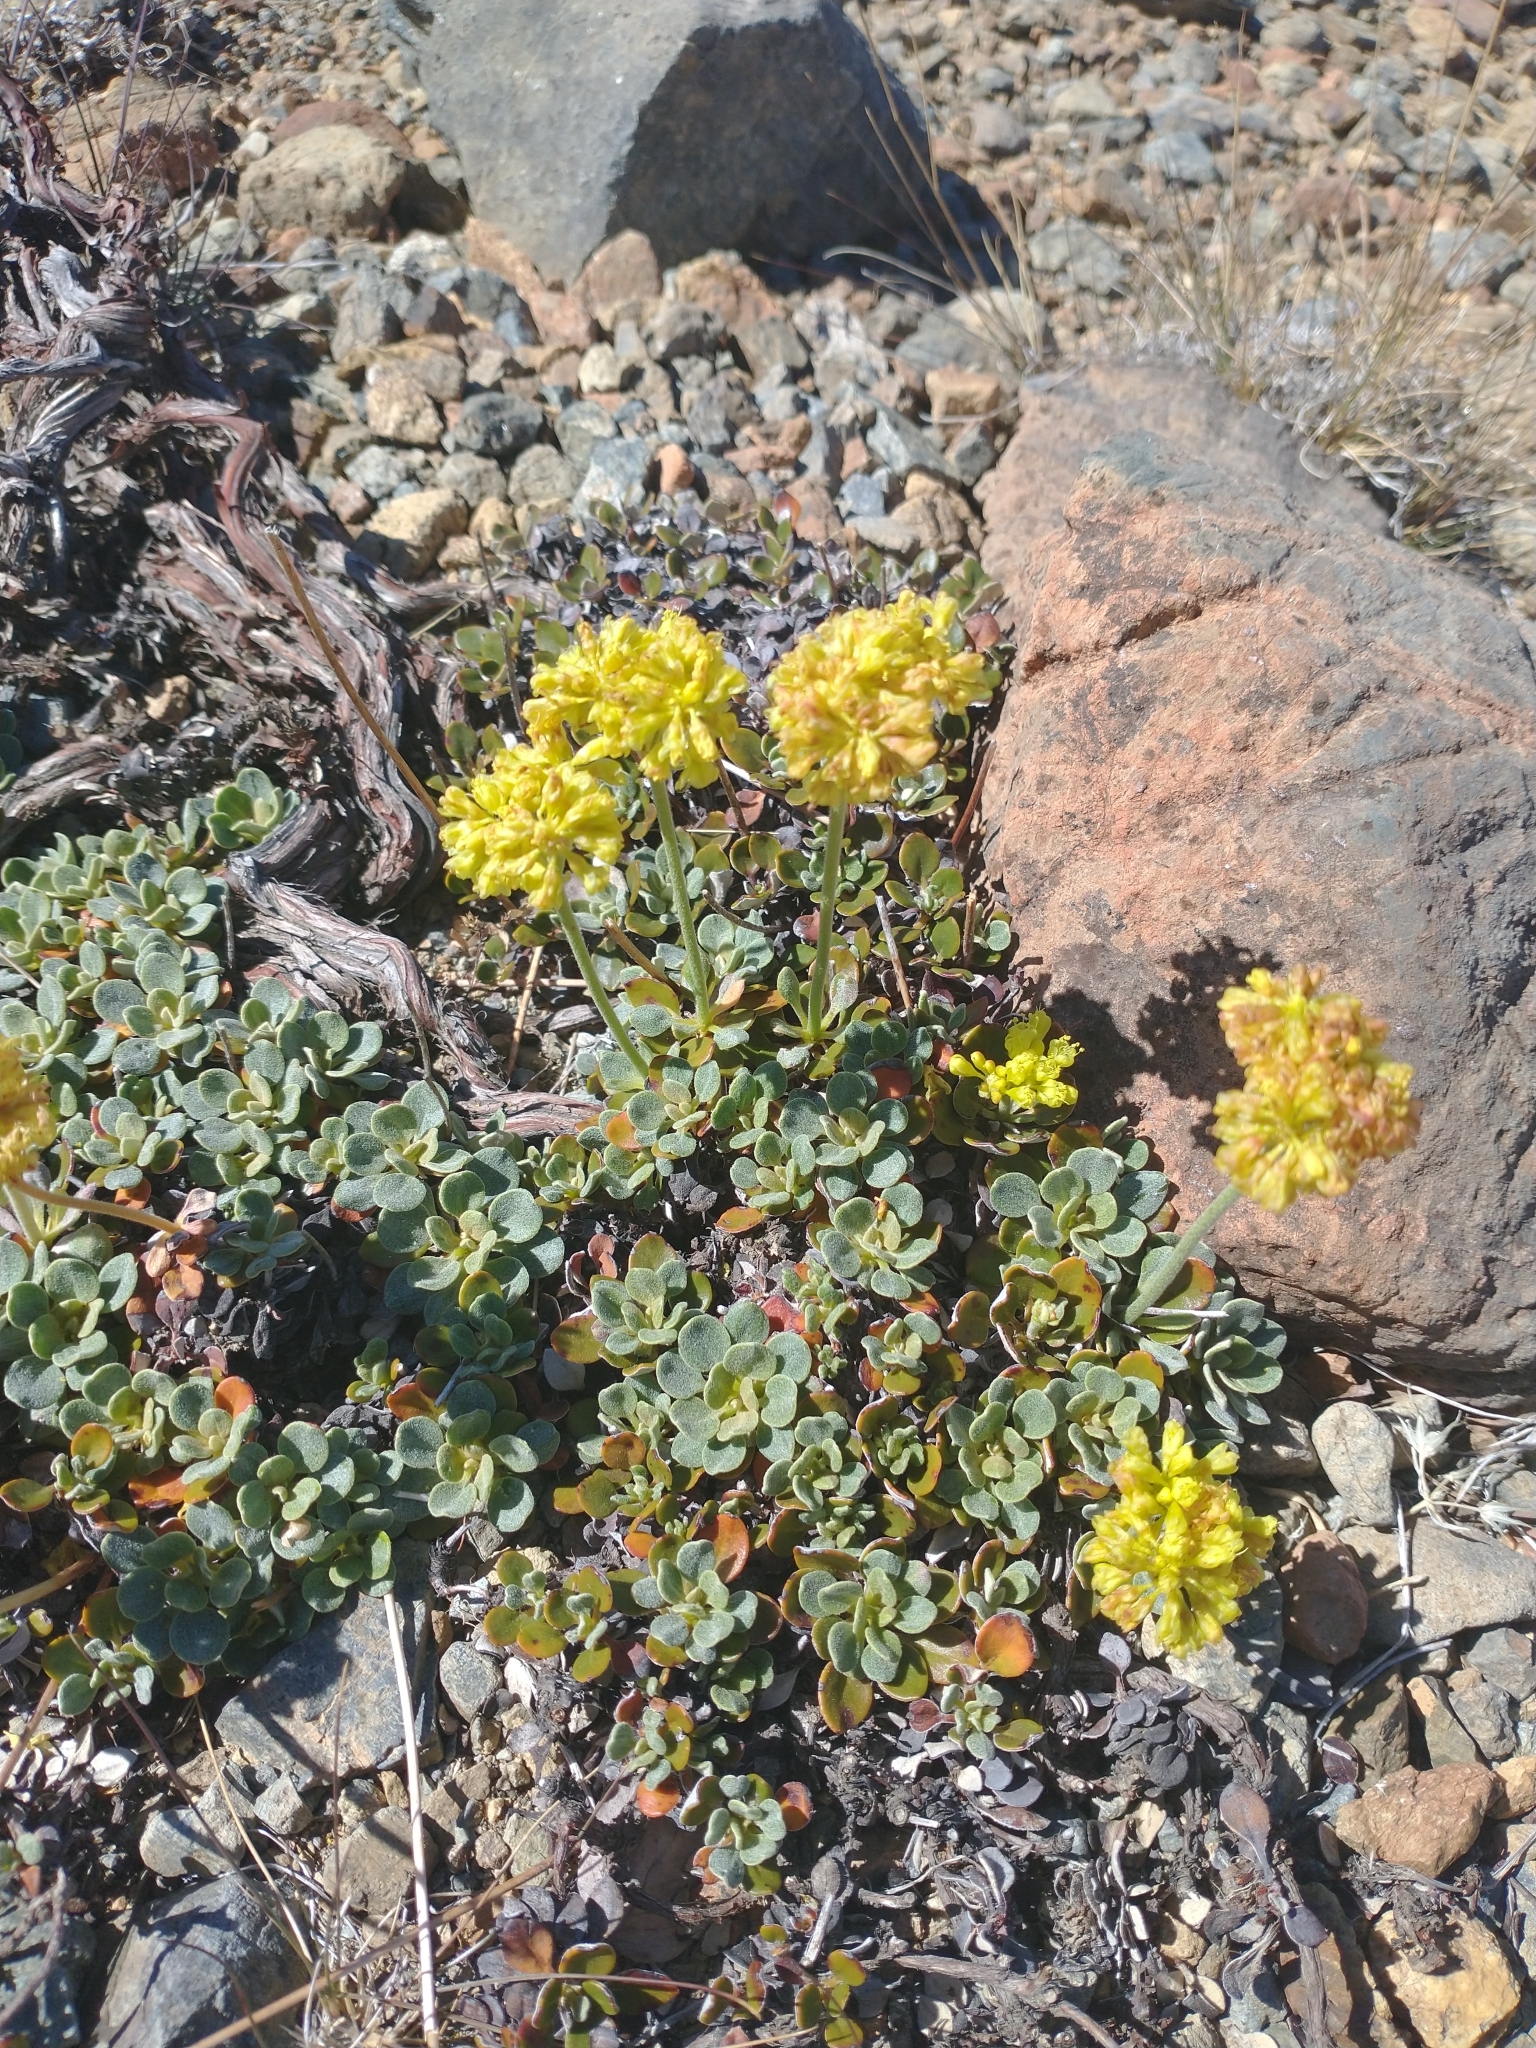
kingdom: Plantae
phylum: Tracheophyta
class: Magnoliopsida
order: Caryophyllales
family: Polygonaceae
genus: Eriogonum
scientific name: Eriogonum ternatum
